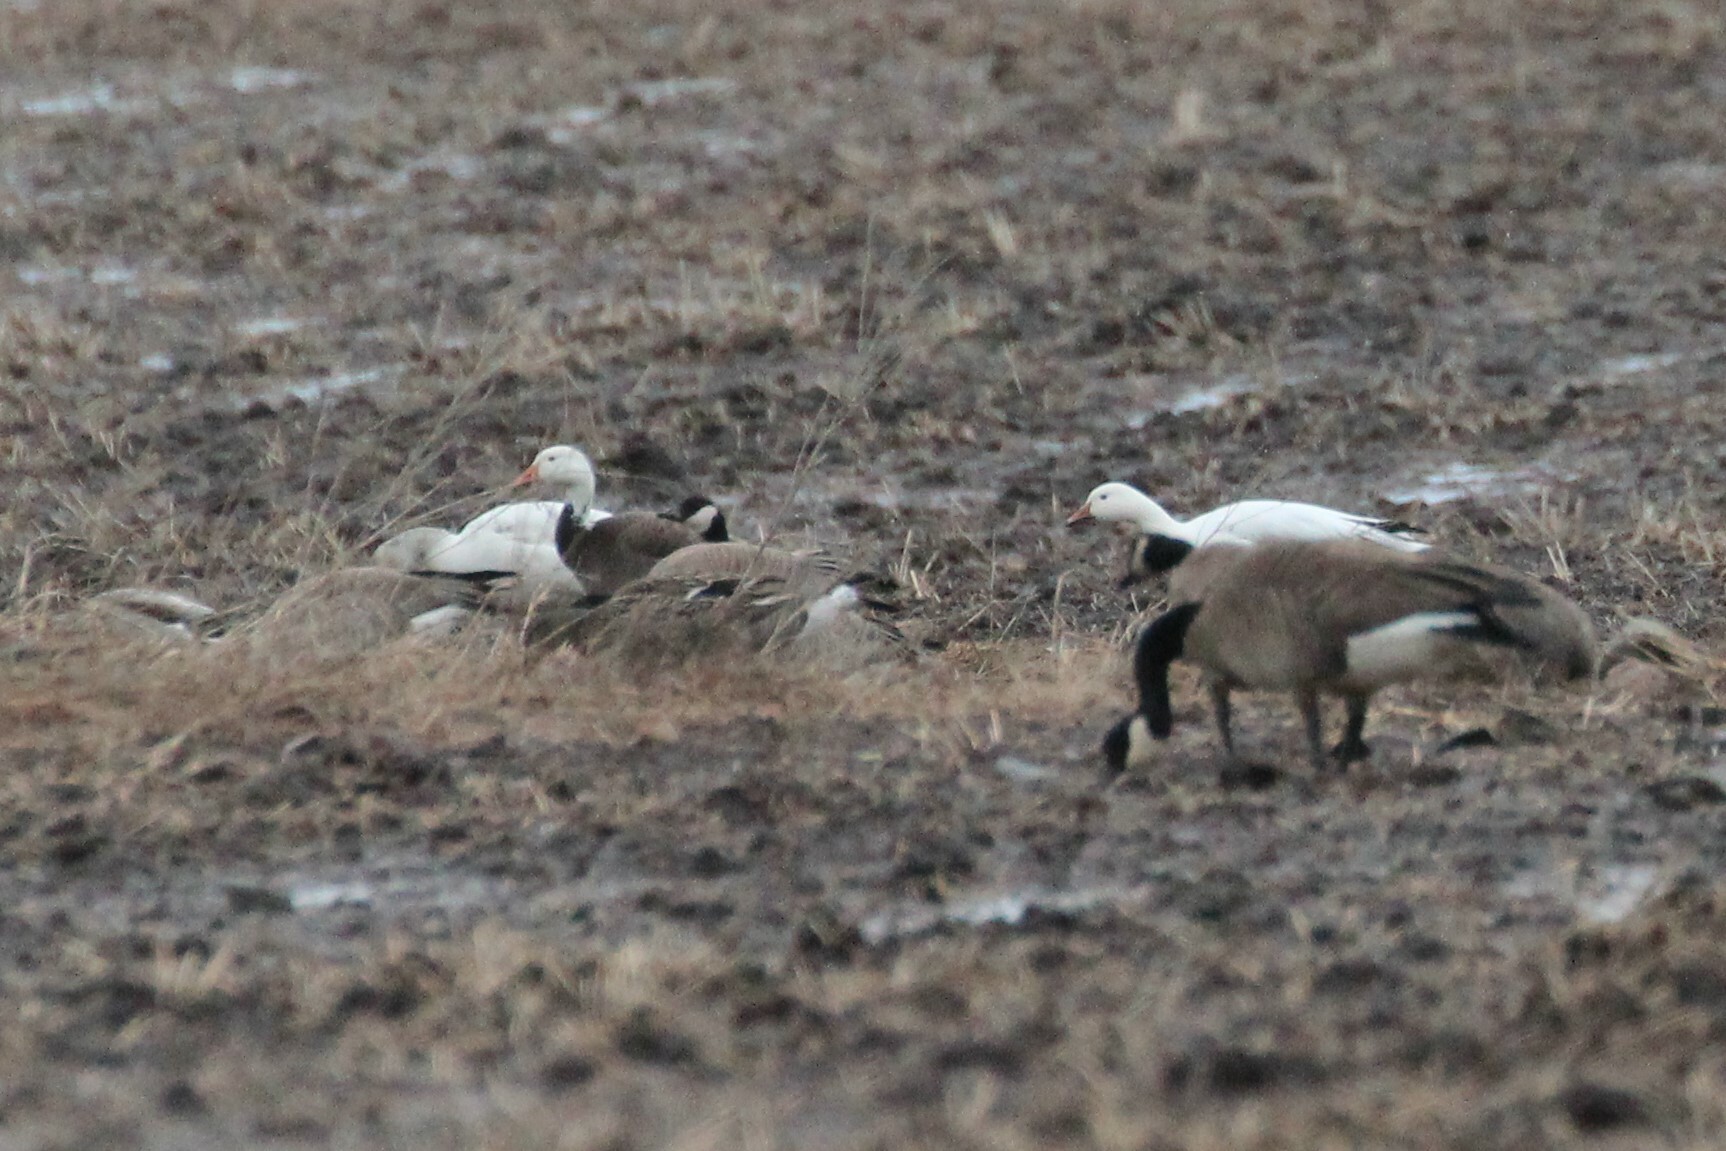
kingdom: Animalia
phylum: Chordata
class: Aves
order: Anseriformes
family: Anatidae
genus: Anser
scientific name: Anser caerulescens
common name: Snow goose
